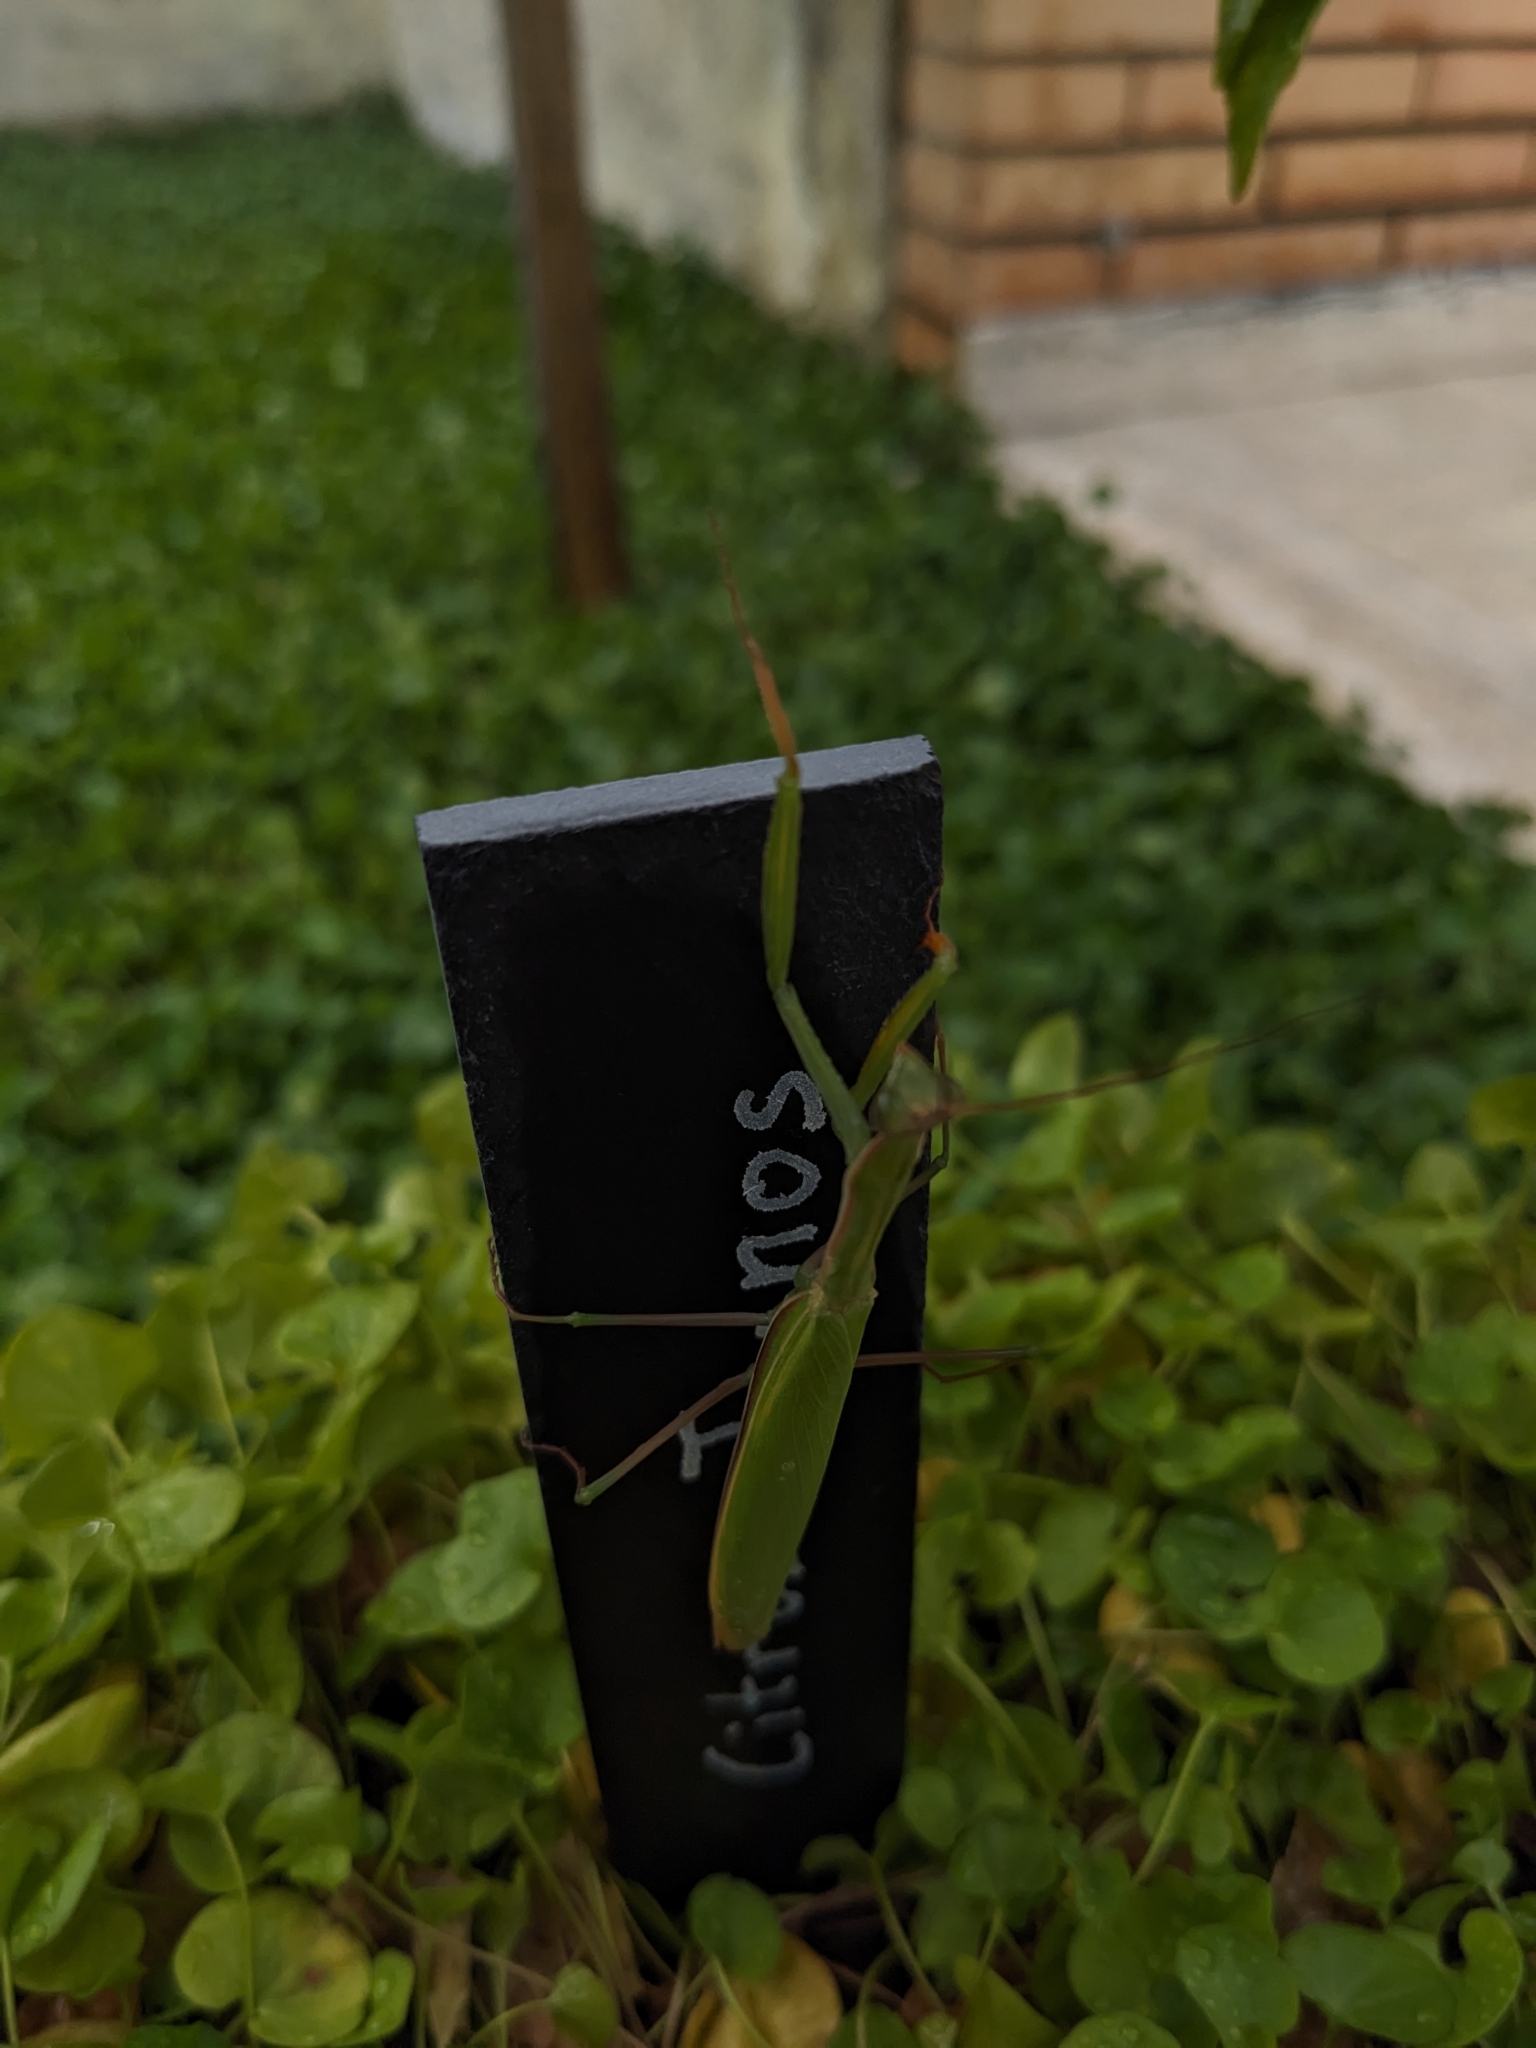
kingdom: Animalia
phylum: Arthropoda
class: Insecta
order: Mantodea
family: Mantidae
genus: Mantis
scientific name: Mantis religiosa
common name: Praying mantis
